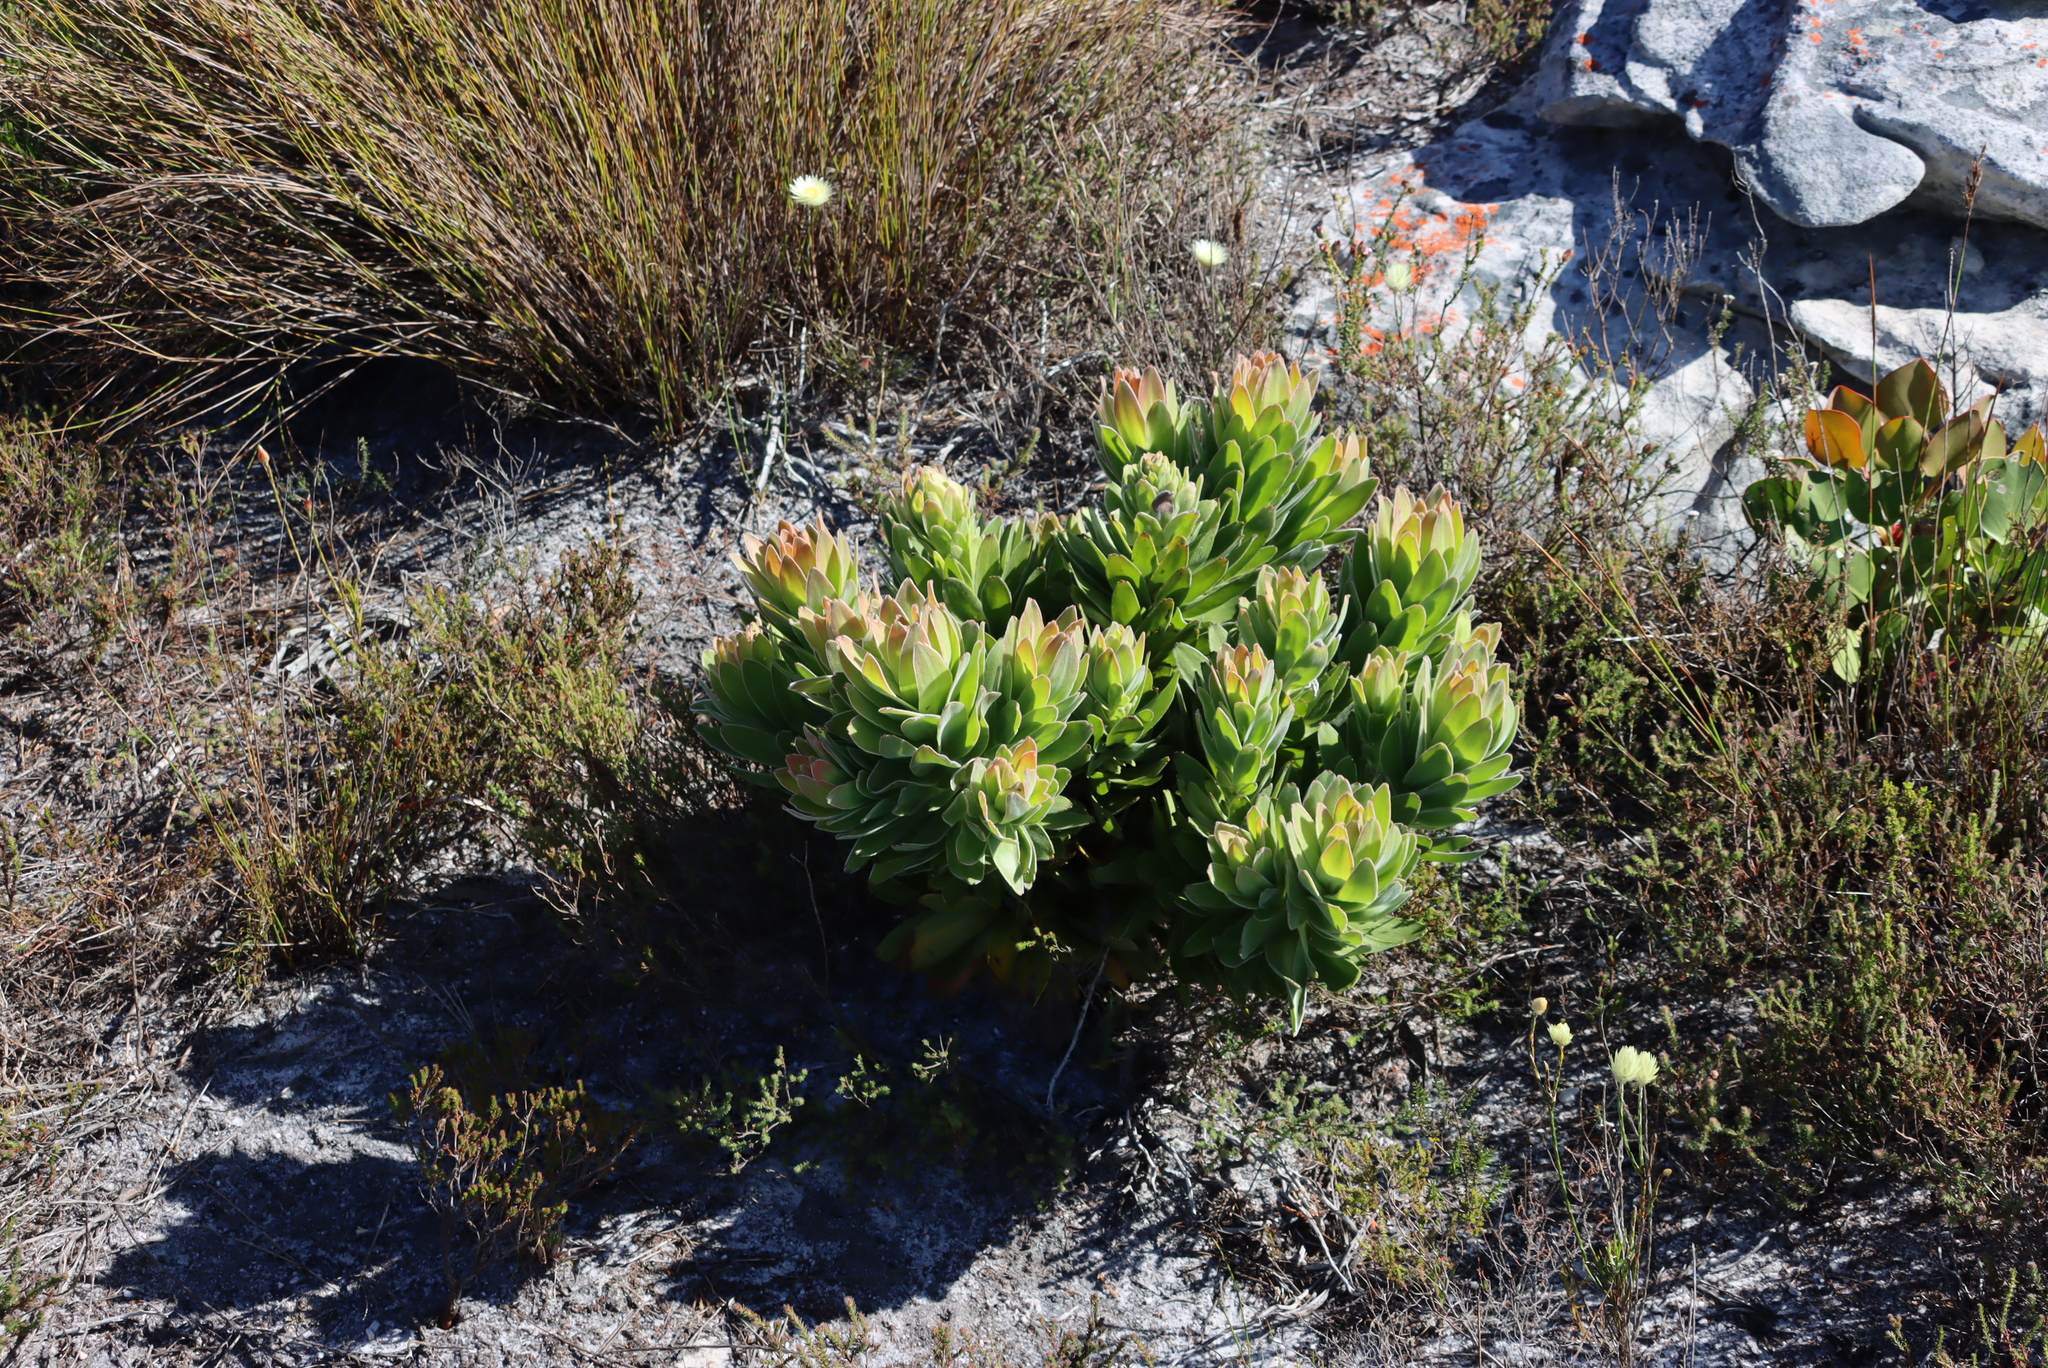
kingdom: Plantae
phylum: Tracheophyta
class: Magnoliopsida
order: Proteales
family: Proteaceae
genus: Mimetes
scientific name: Mimetes fimbriifolius
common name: Fringed bottlebrush
